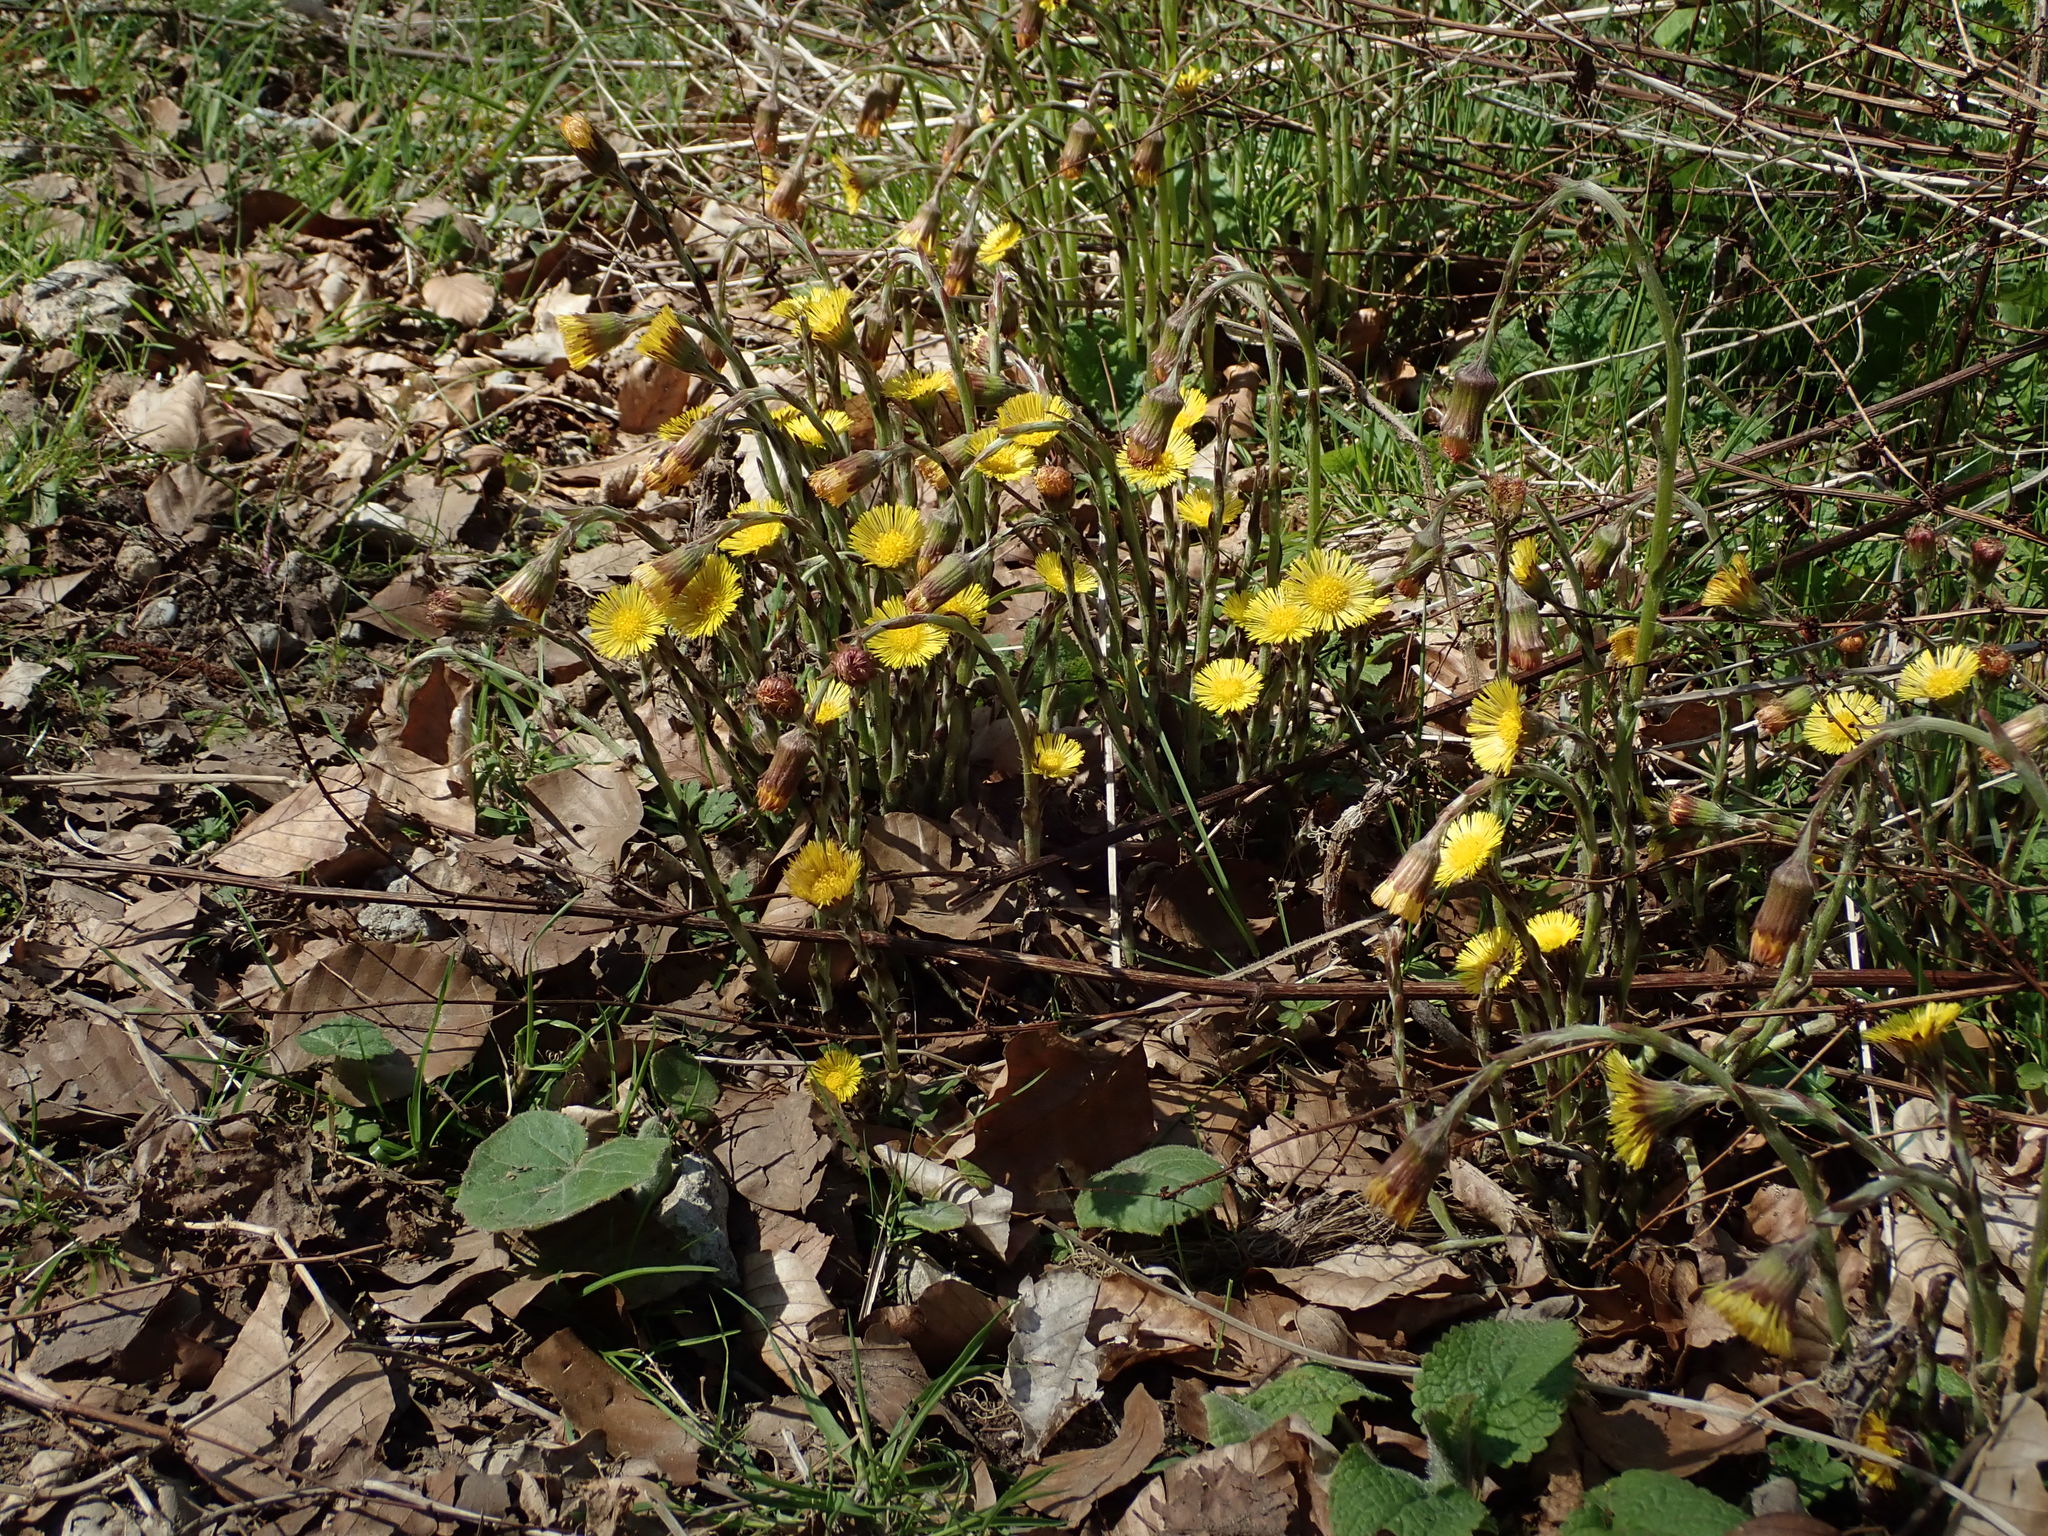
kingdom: Plantae
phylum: Tracheophyta
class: Magnoliopsida
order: Asterales
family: Asteraceae
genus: Tussilago
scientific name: Tussilago farfara
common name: Coltsfoot
